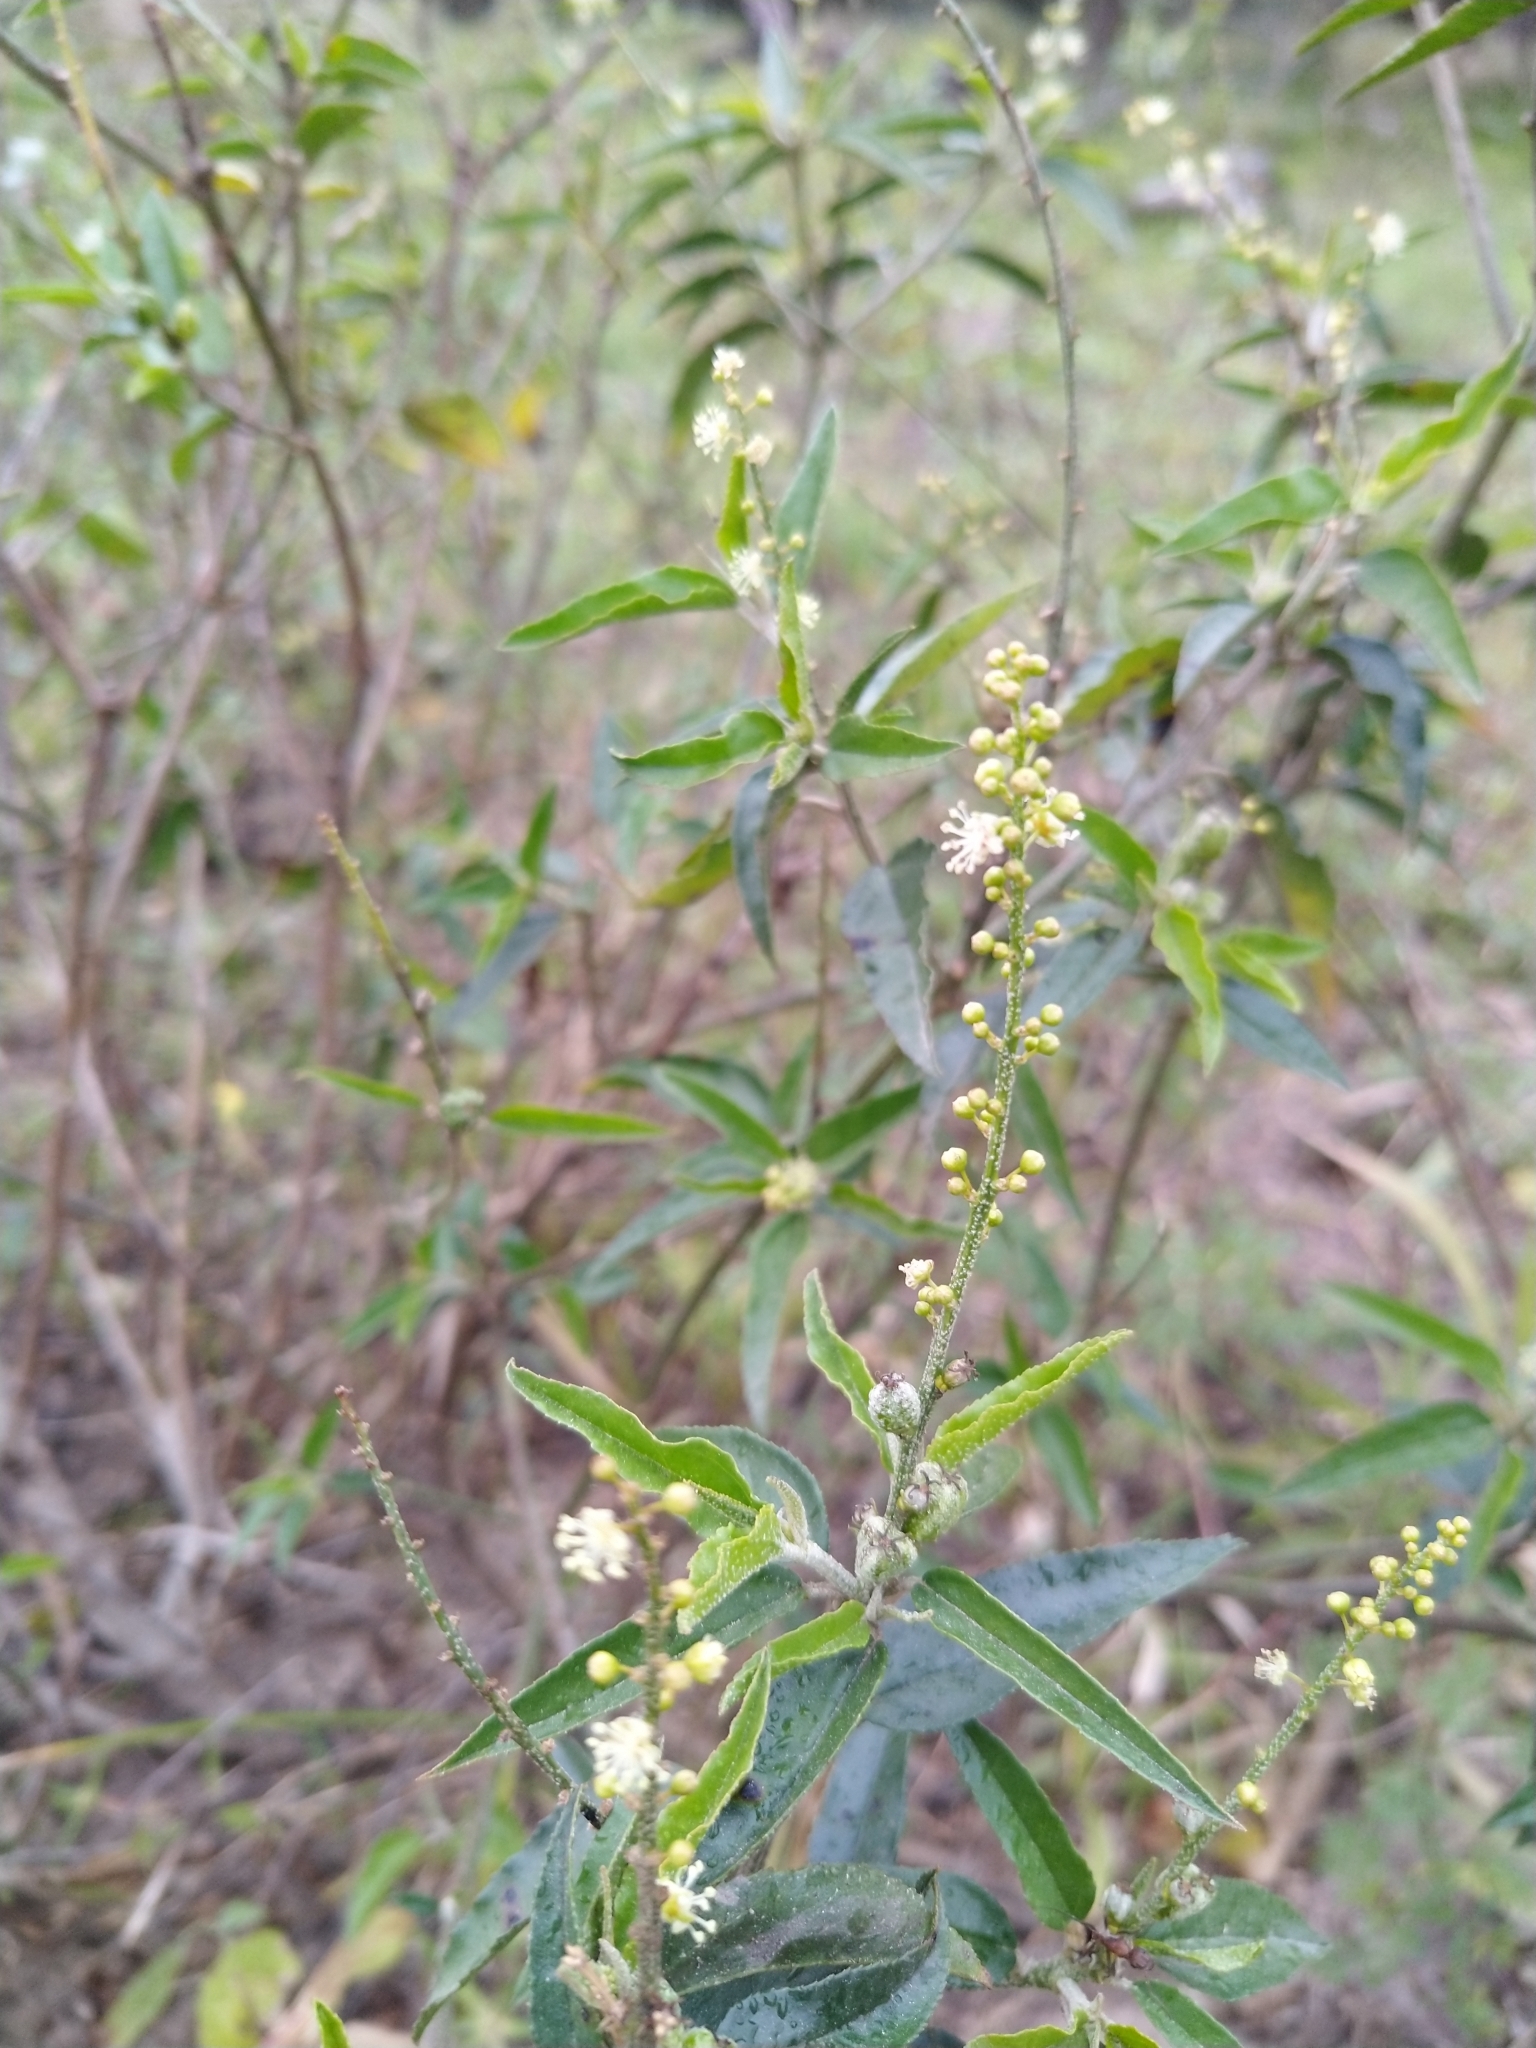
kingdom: Plantae
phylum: Tracheophyta
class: Magnoliopsida
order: Malpighiales
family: Euphorbiaceae
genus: Croton
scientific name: Croton bonplandianus
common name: Bonpland's croton
